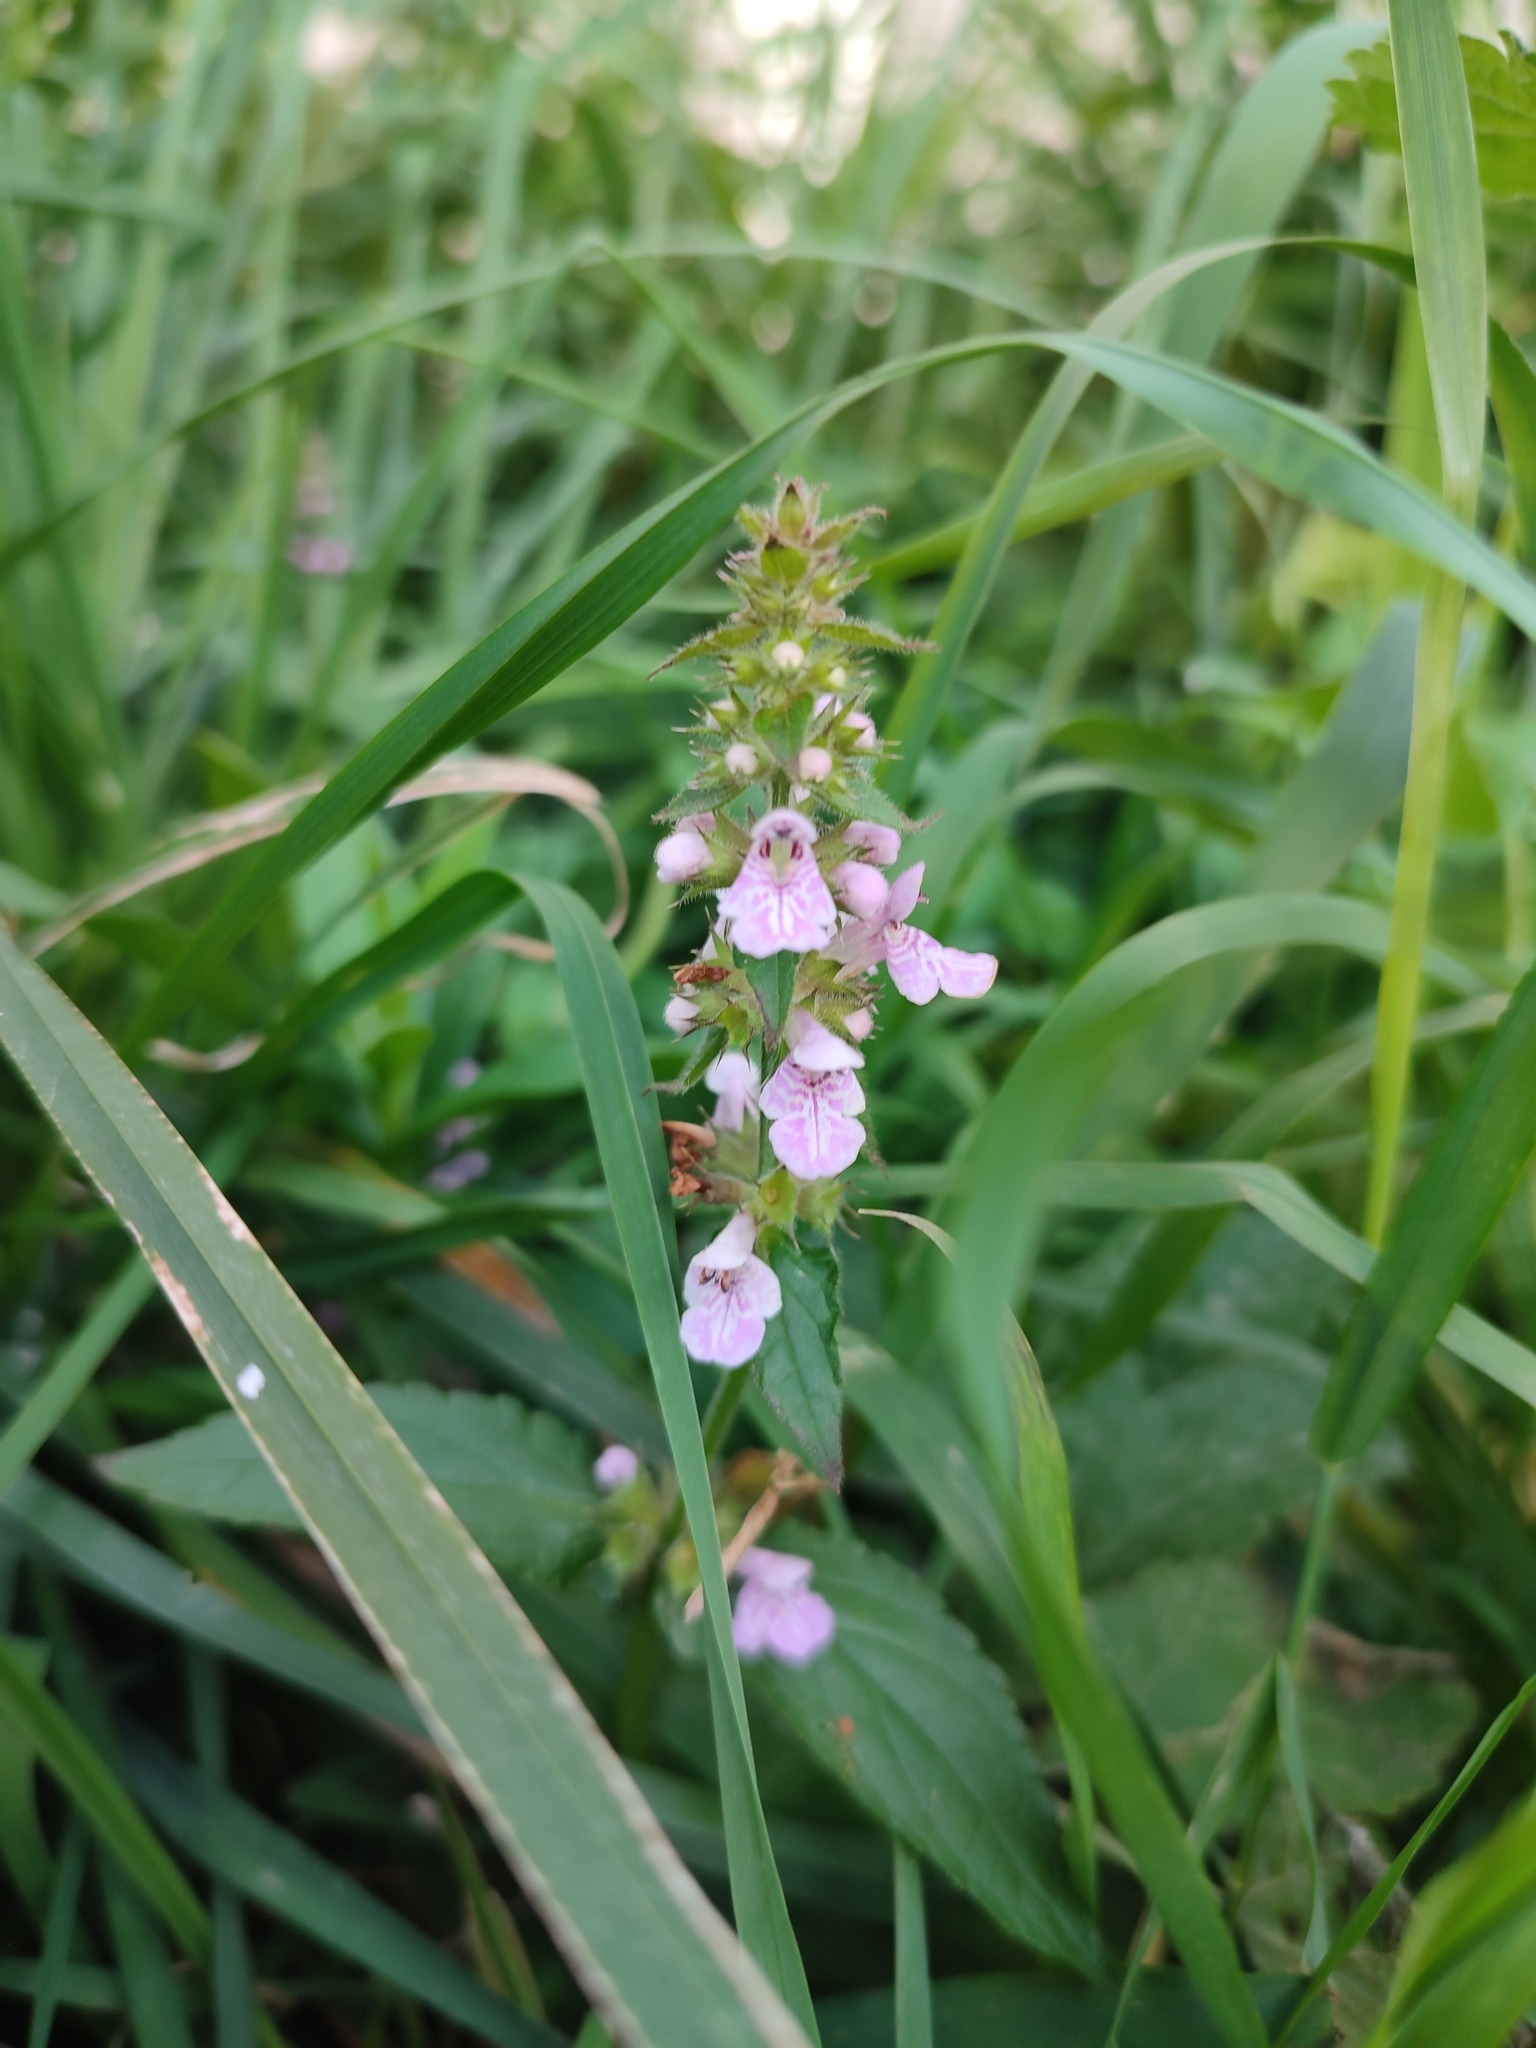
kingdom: Plantae
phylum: Tracheophyta
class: Magnoliopsida
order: Lamiales
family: Lamiaceae
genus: Stachys
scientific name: Stachys palustris
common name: Marsh woundwort
